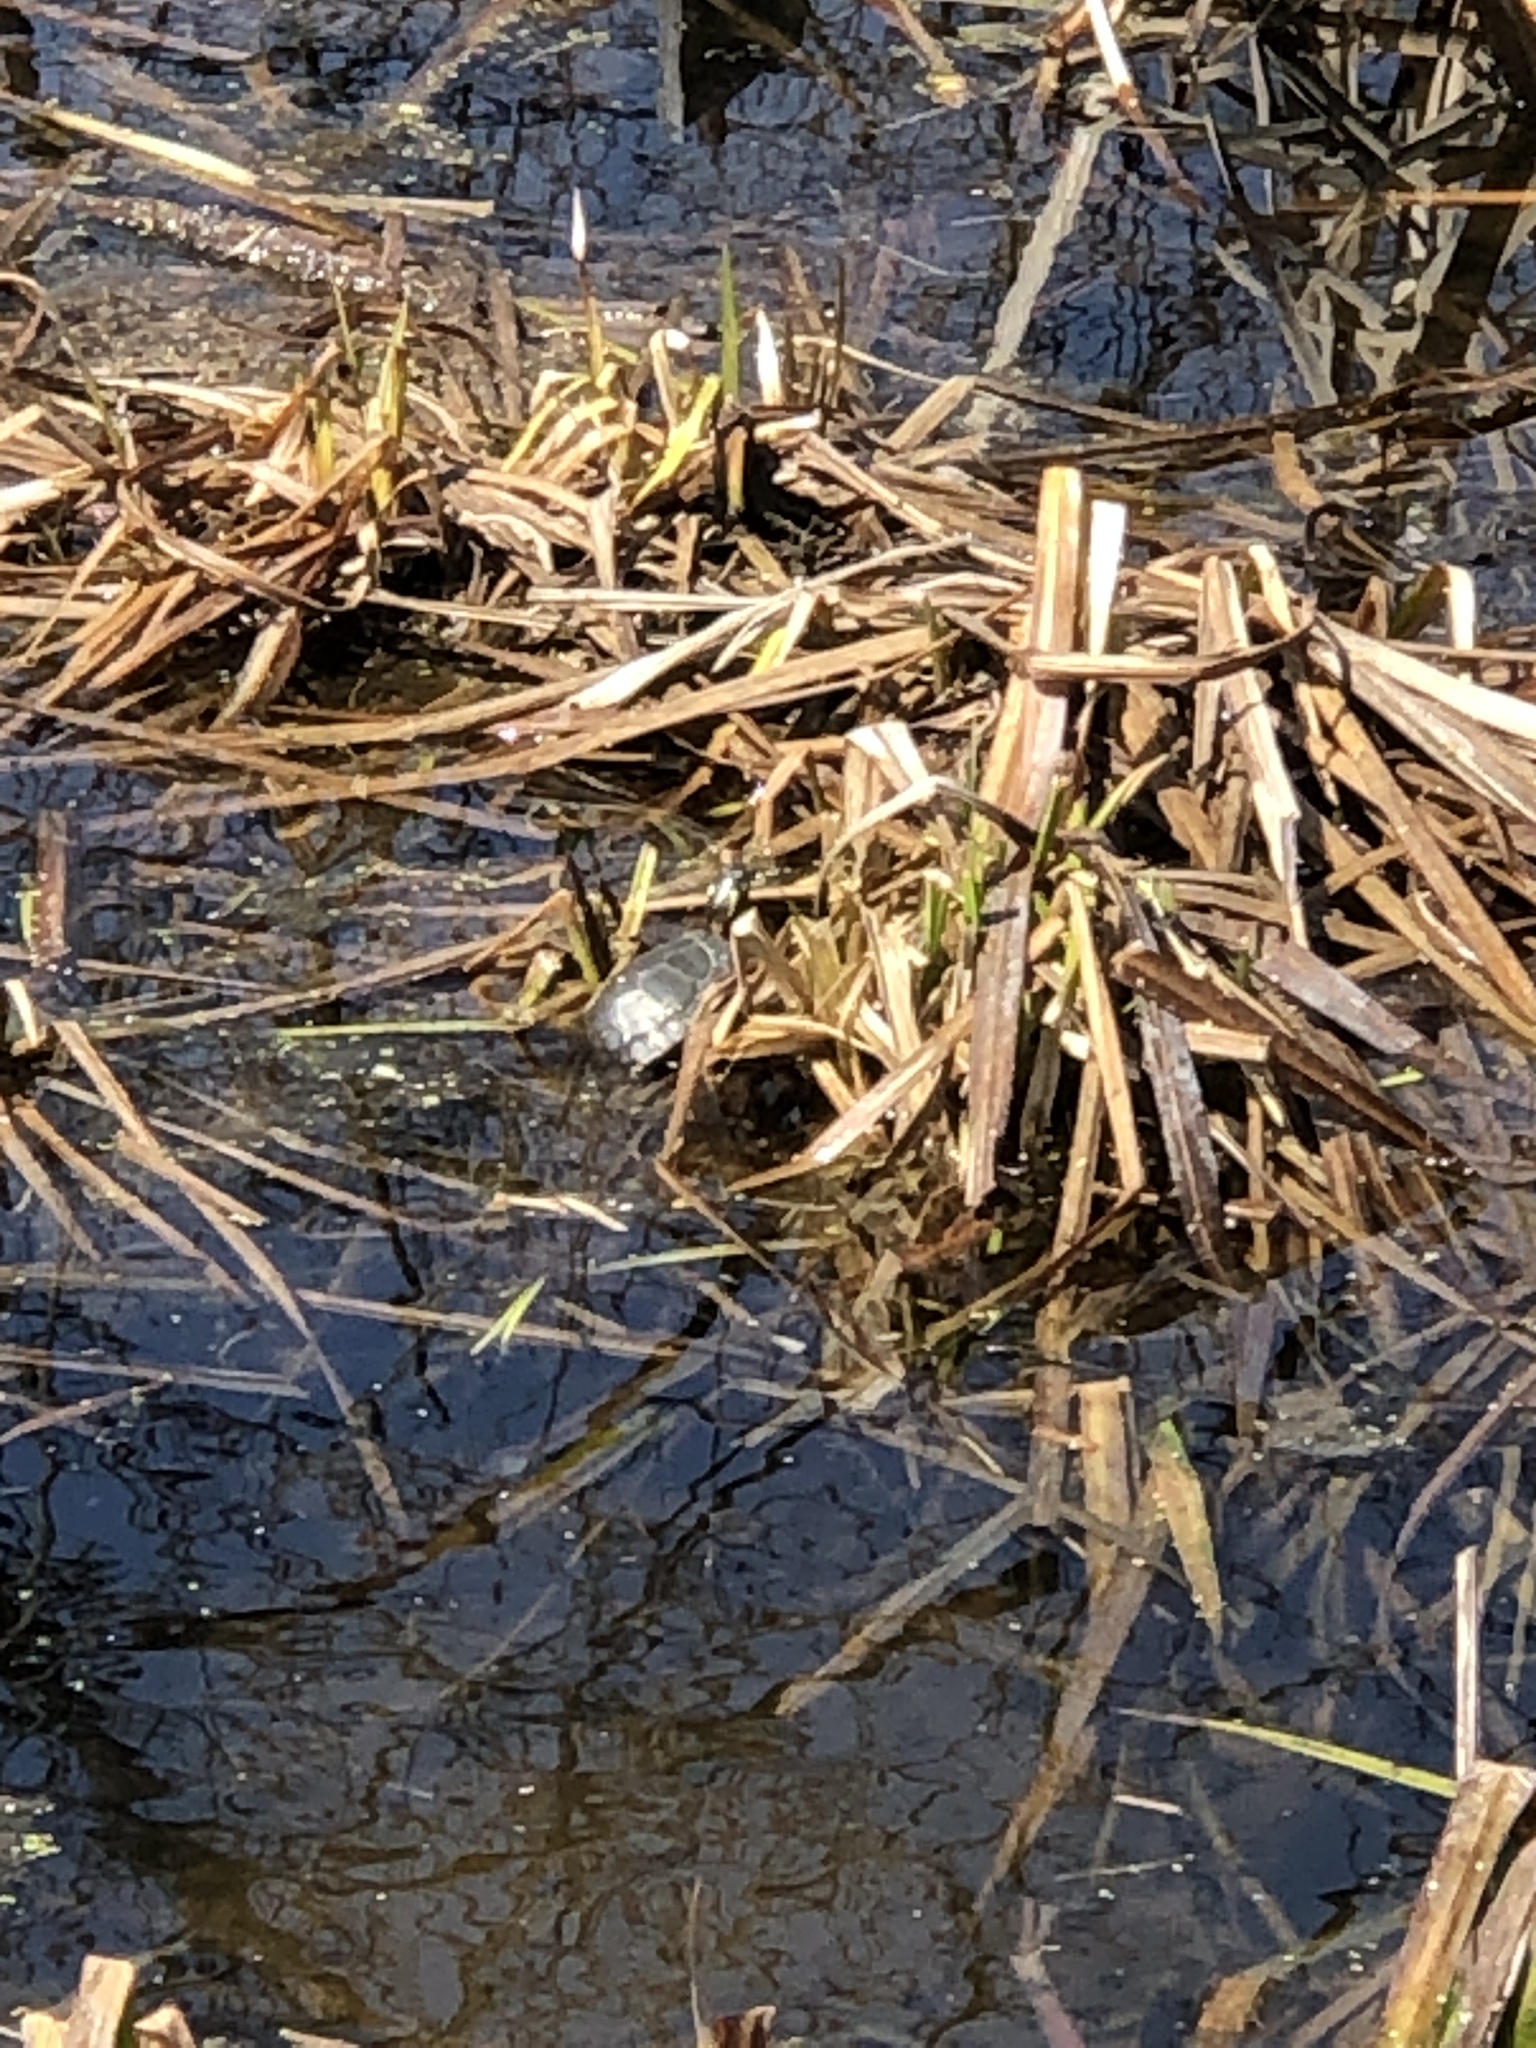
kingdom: Animalia
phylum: Chordata
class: Testudines
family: Emydidae
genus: Chrysemys
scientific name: Chrysemys picta
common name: Painted turtle
